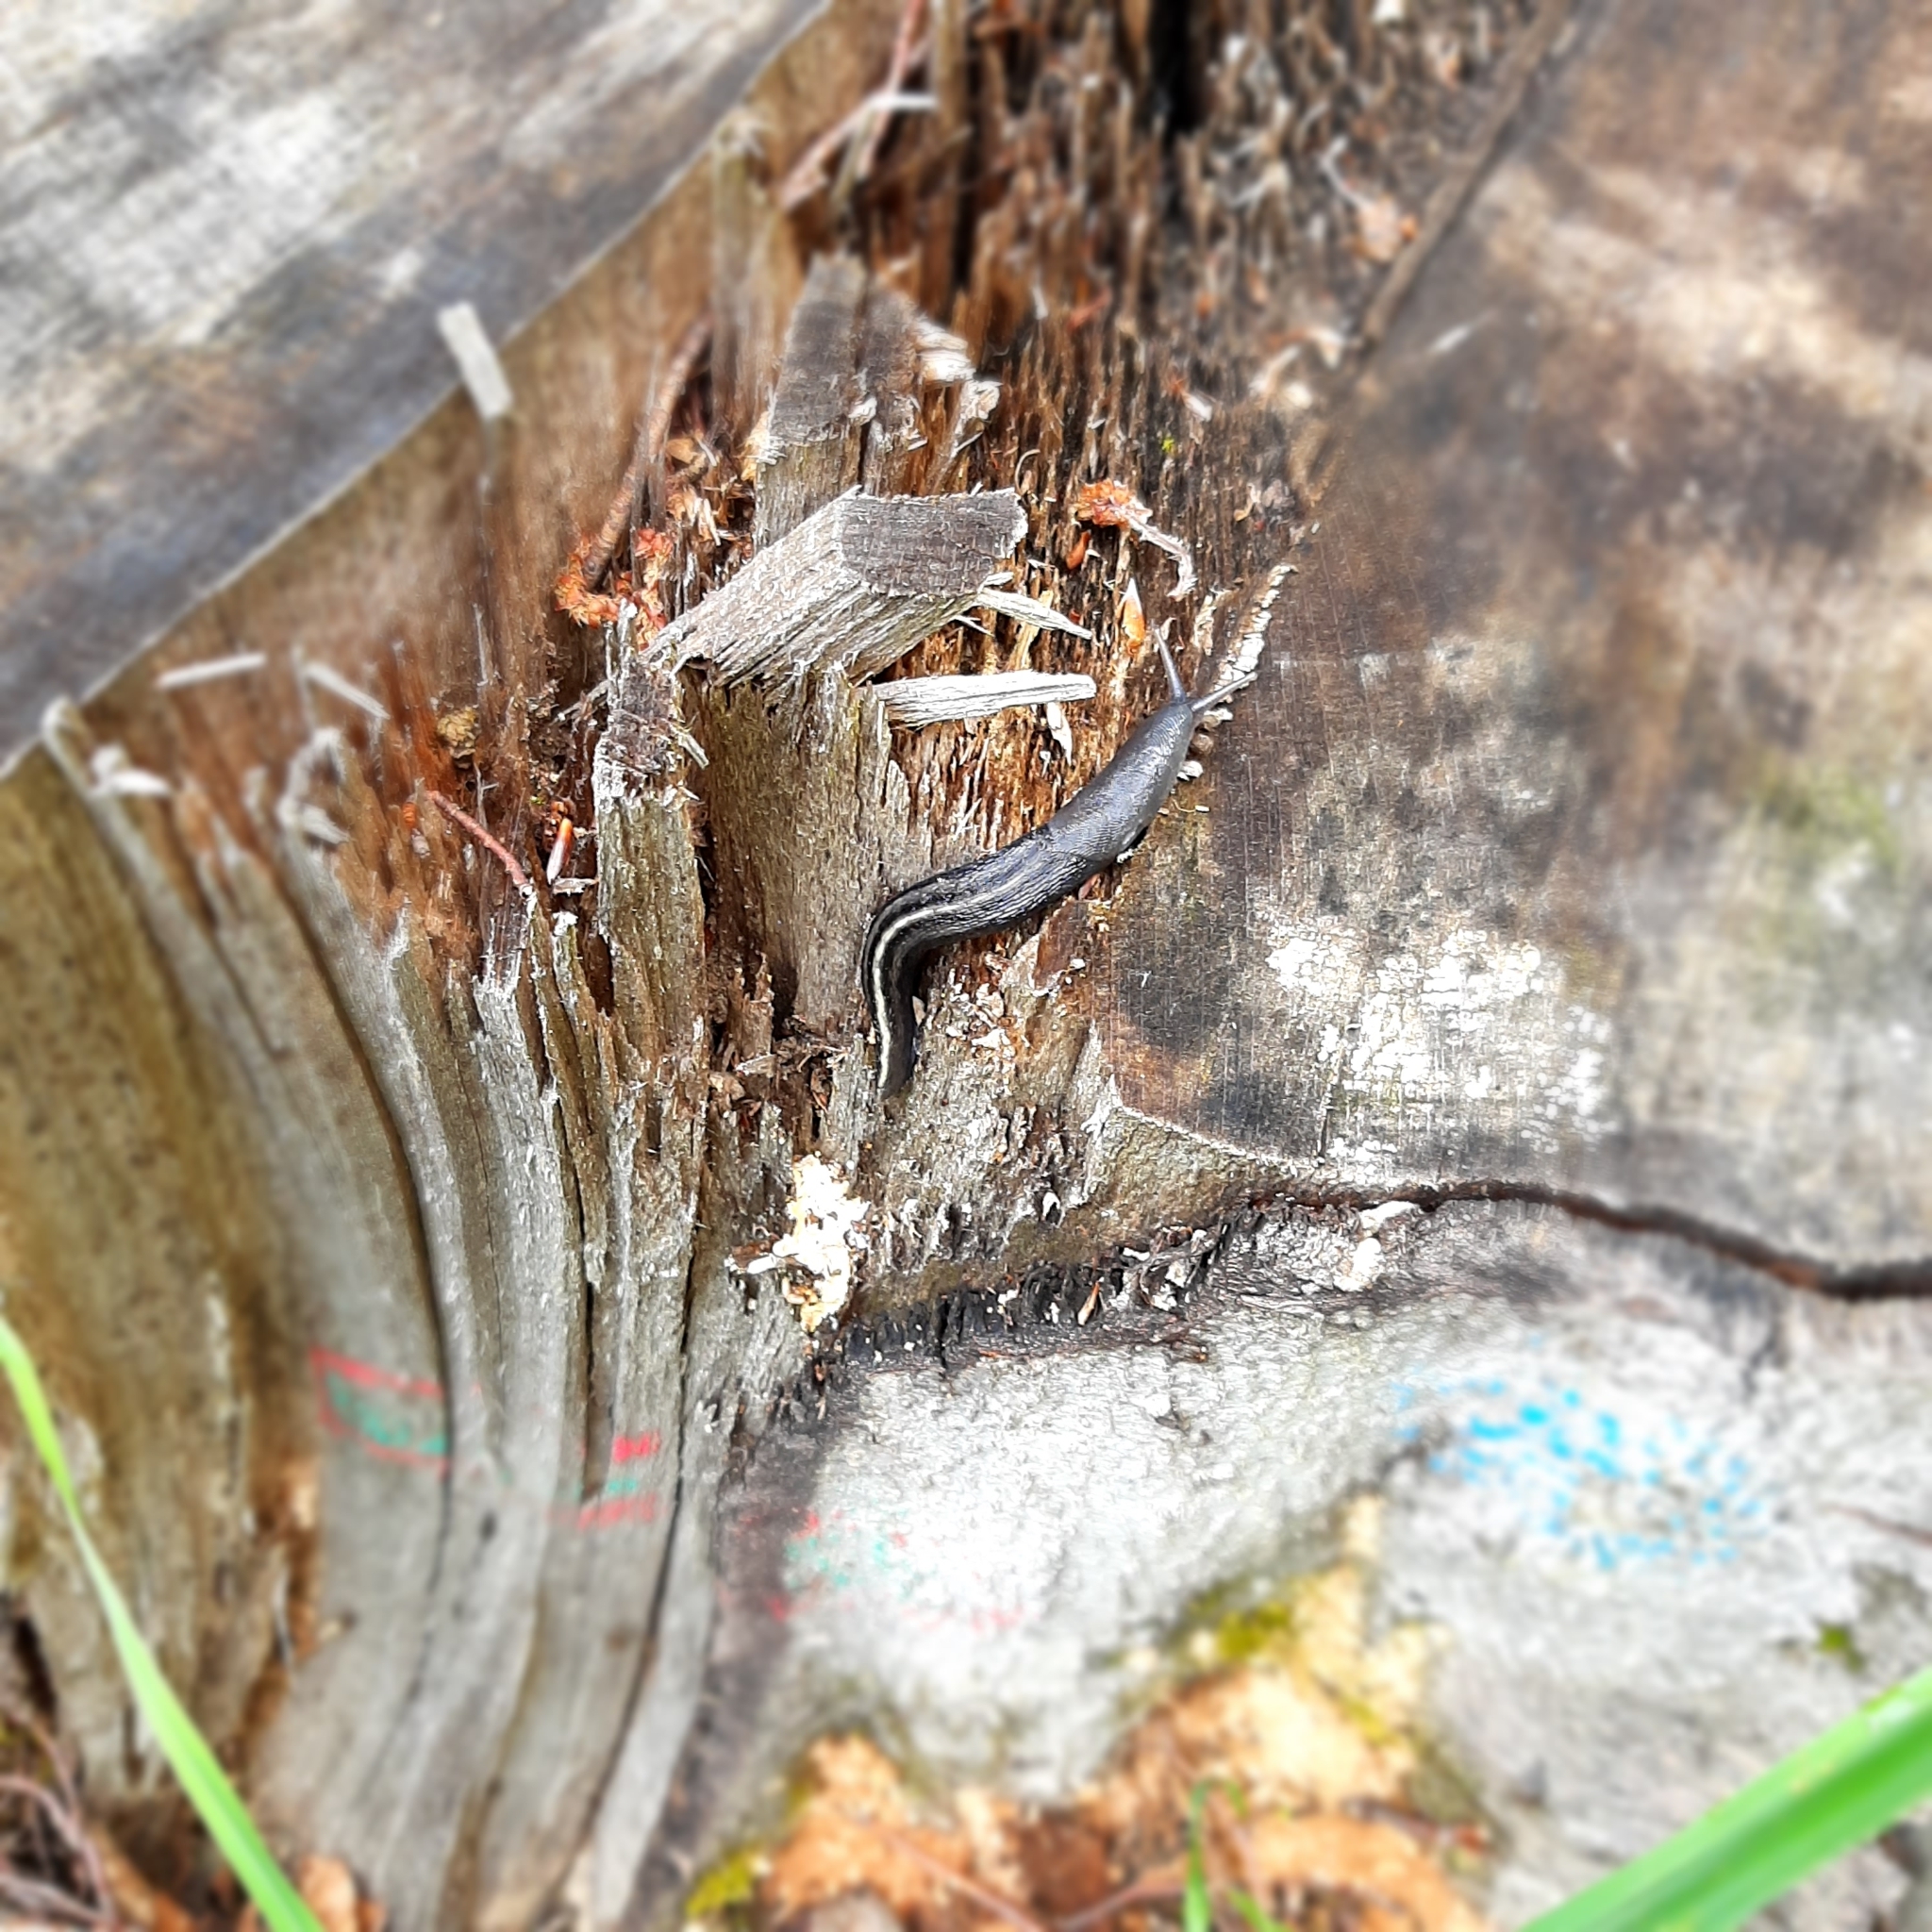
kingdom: Animalia
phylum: Mollusca
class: Gastropoda
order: Stylommatophora
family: Limacidae
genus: Limax
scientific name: Limax cinereoniger
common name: Ash-black slug
